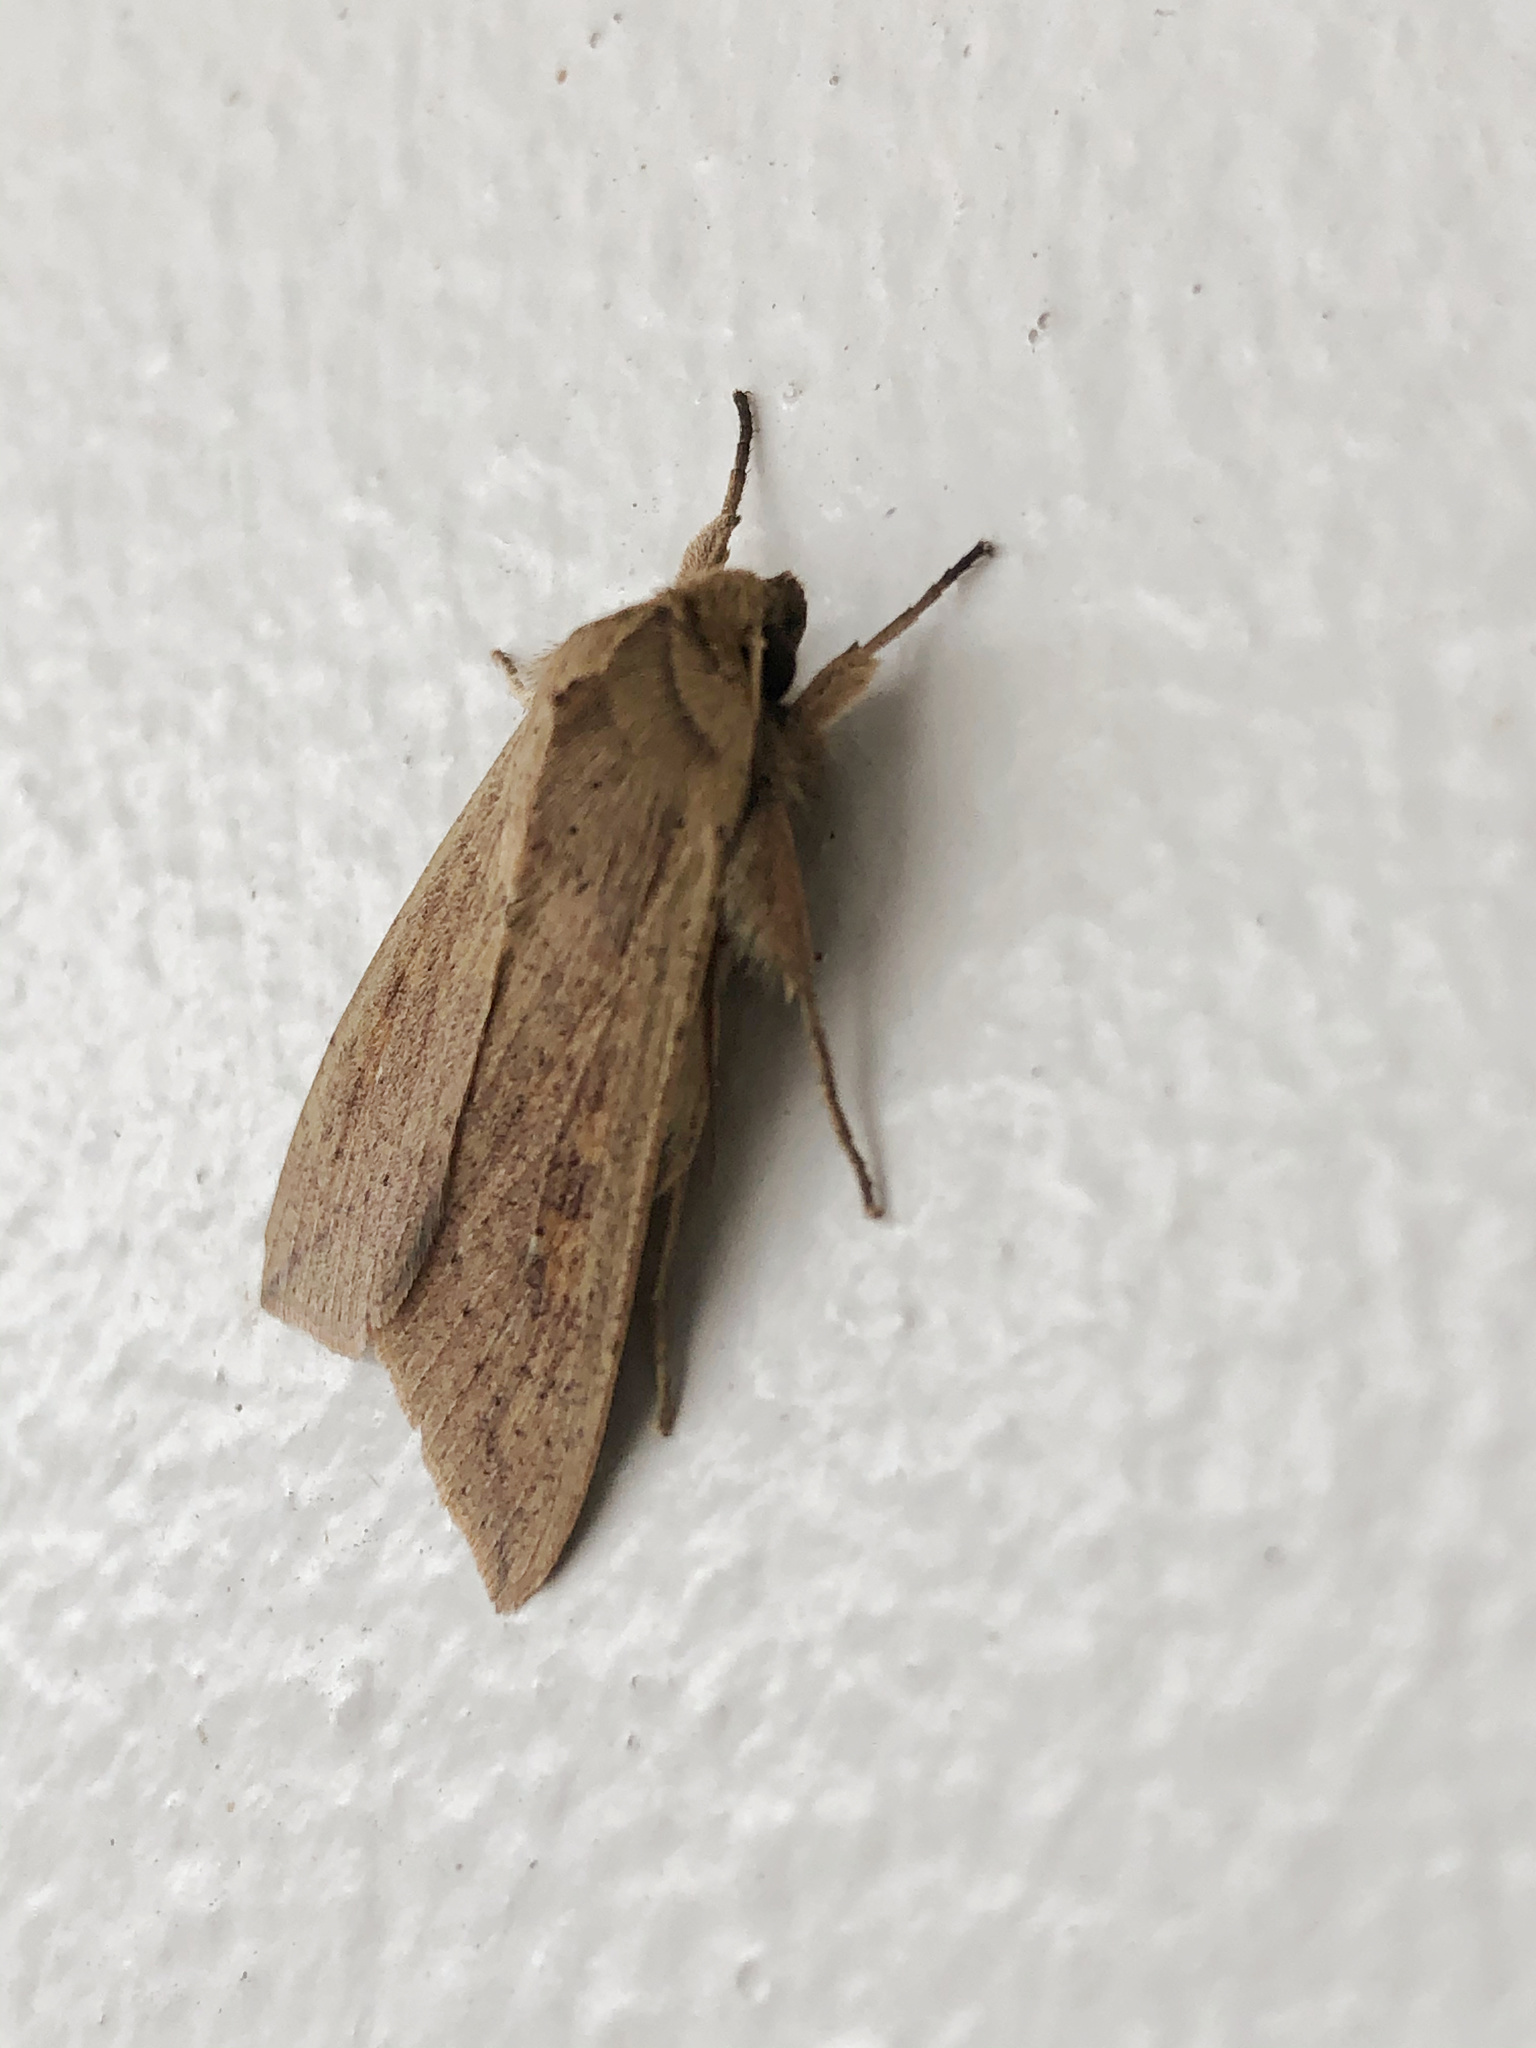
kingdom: Animalia
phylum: Arthropoda
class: Insecta
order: Lepidoptera
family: Noctuidae
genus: Mythimna
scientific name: Mythimna separata
